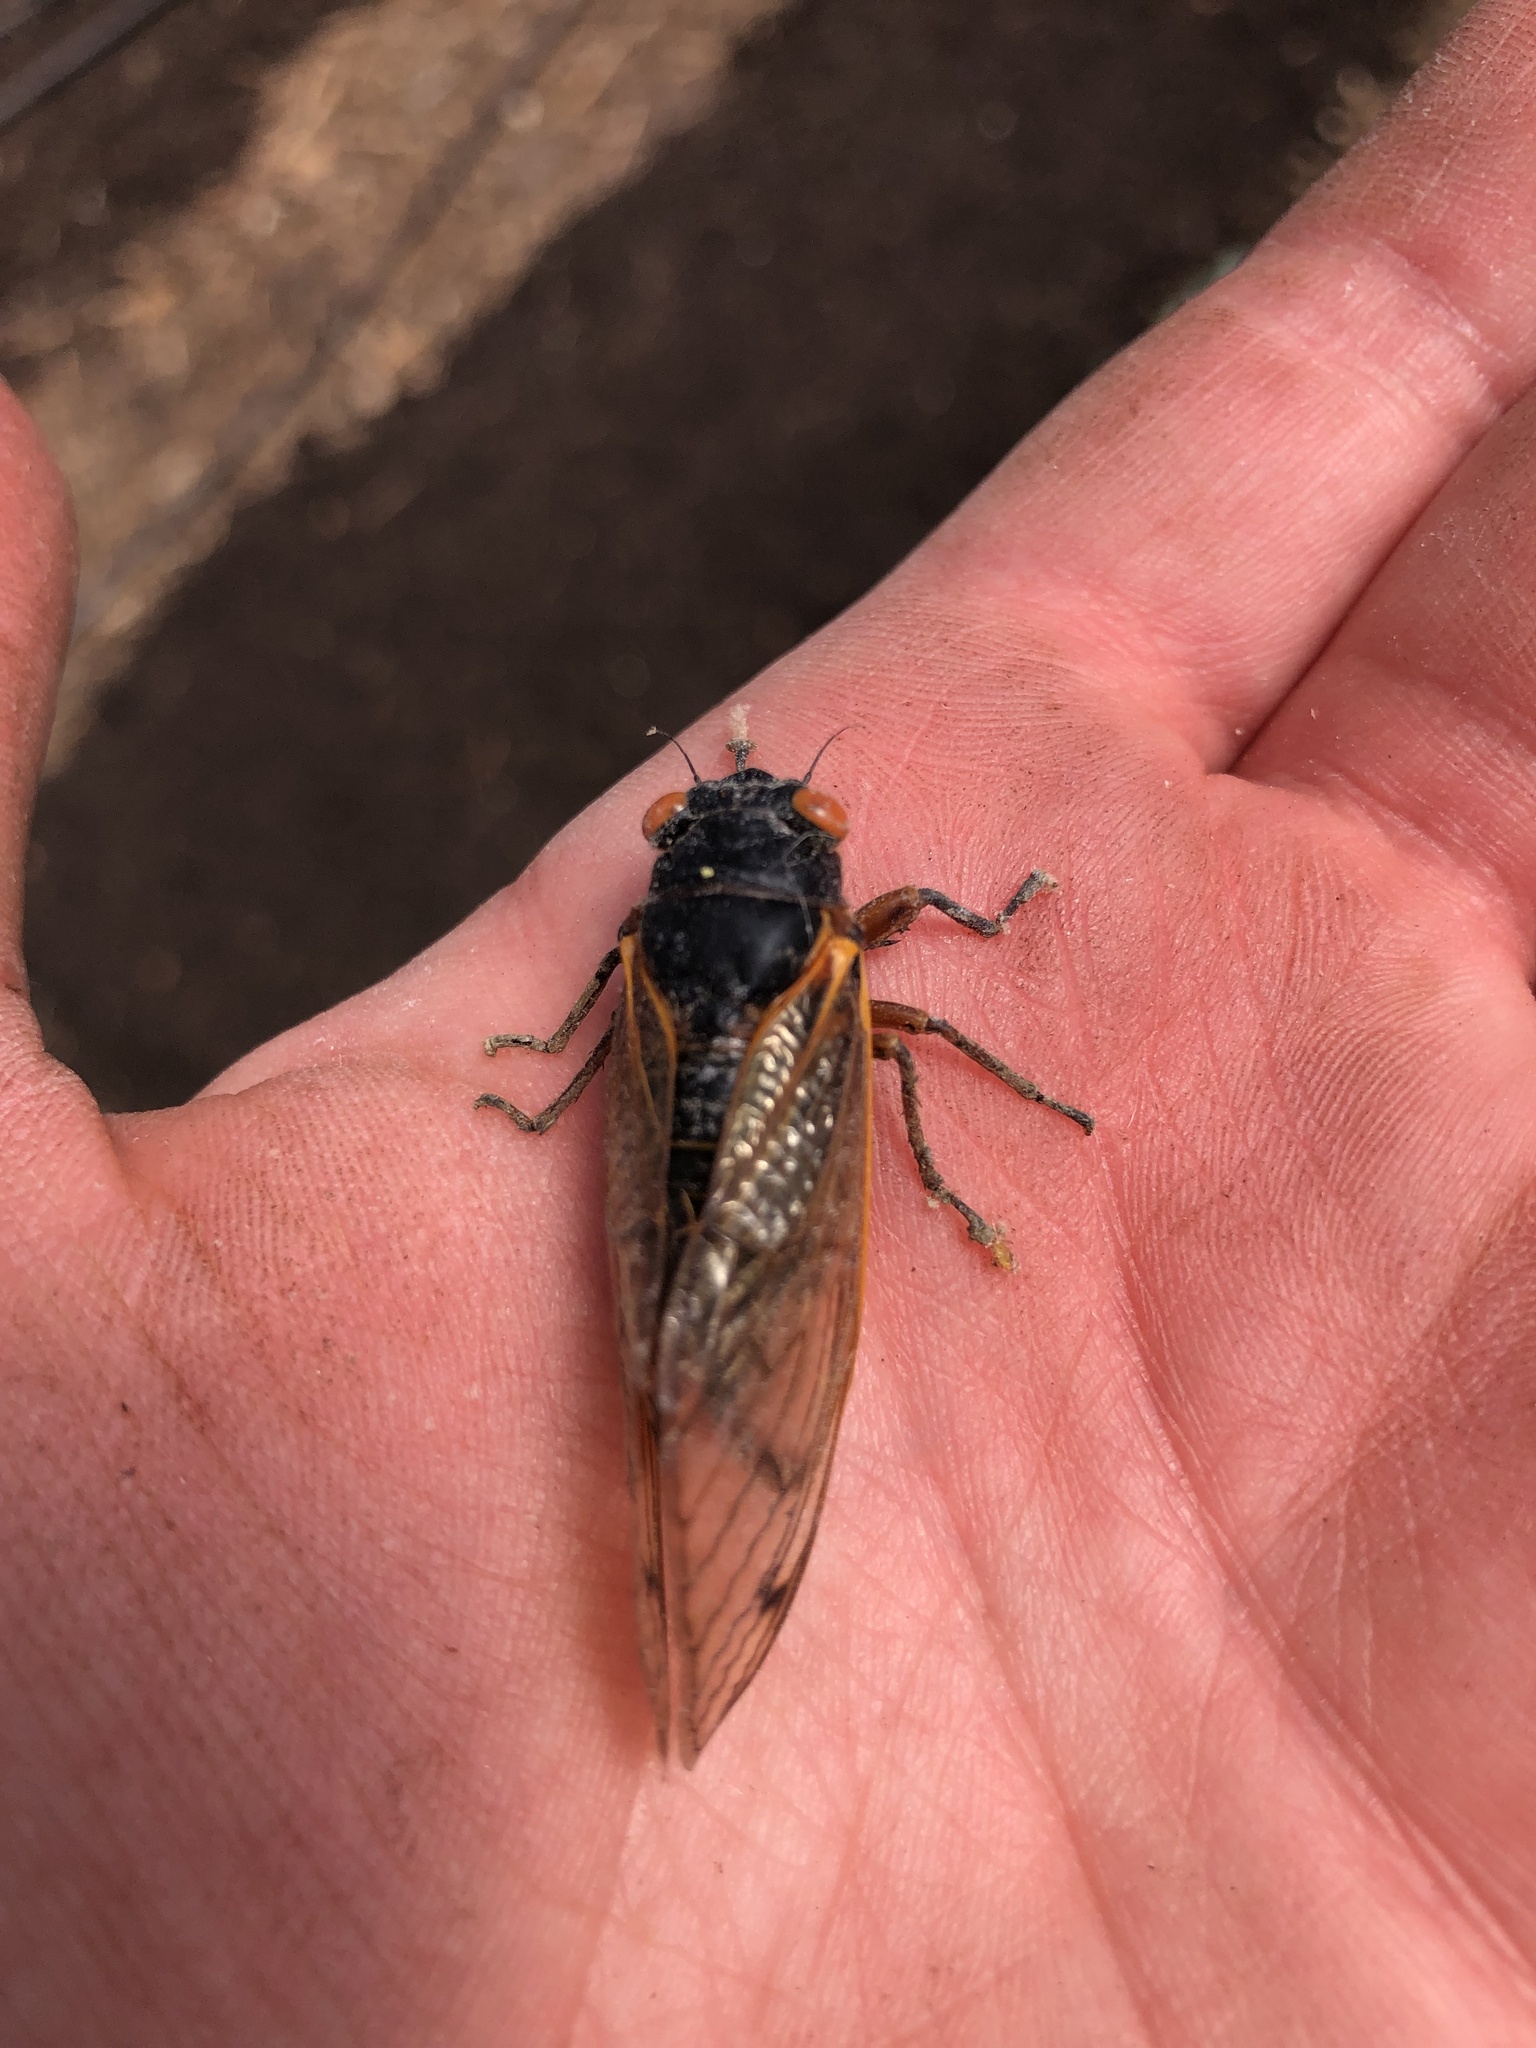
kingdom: Animalia
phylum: Arthropoda
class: Insecta
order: Hemiptera
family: Cicadidae
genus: Magicicada
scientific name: Magicicada
